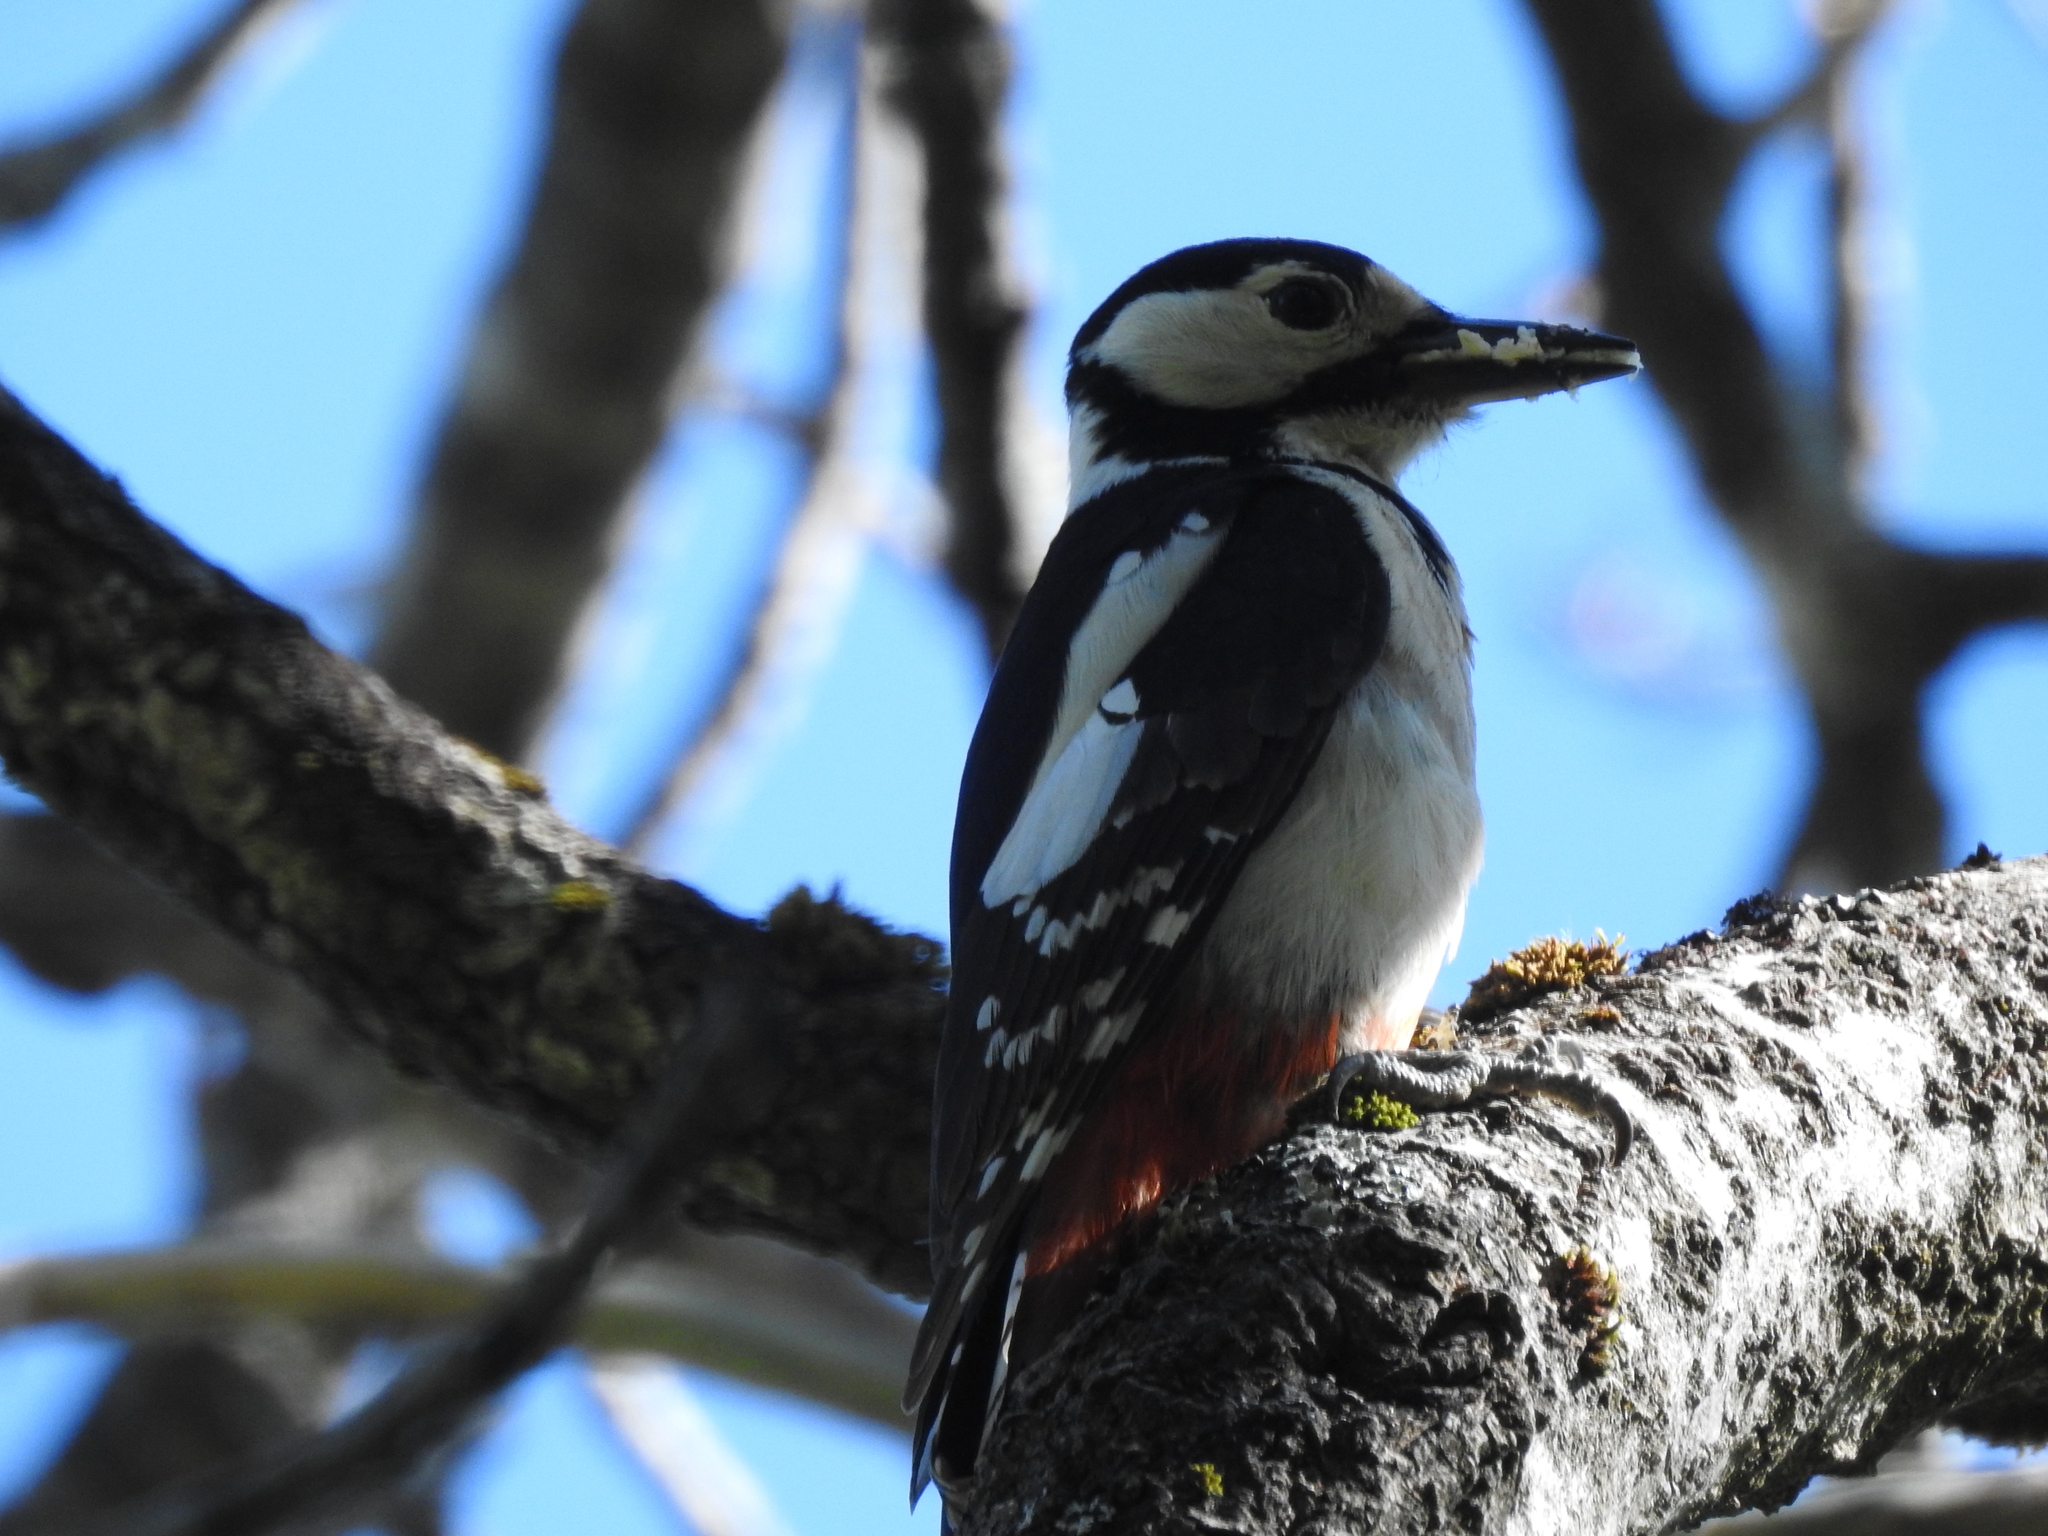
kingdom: Animalia
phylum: Chordata
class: Aves
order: Piciformes
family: Picidae
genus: Dendrocopos
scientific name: Dendrocopos major
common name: Great spotted woodpecker
